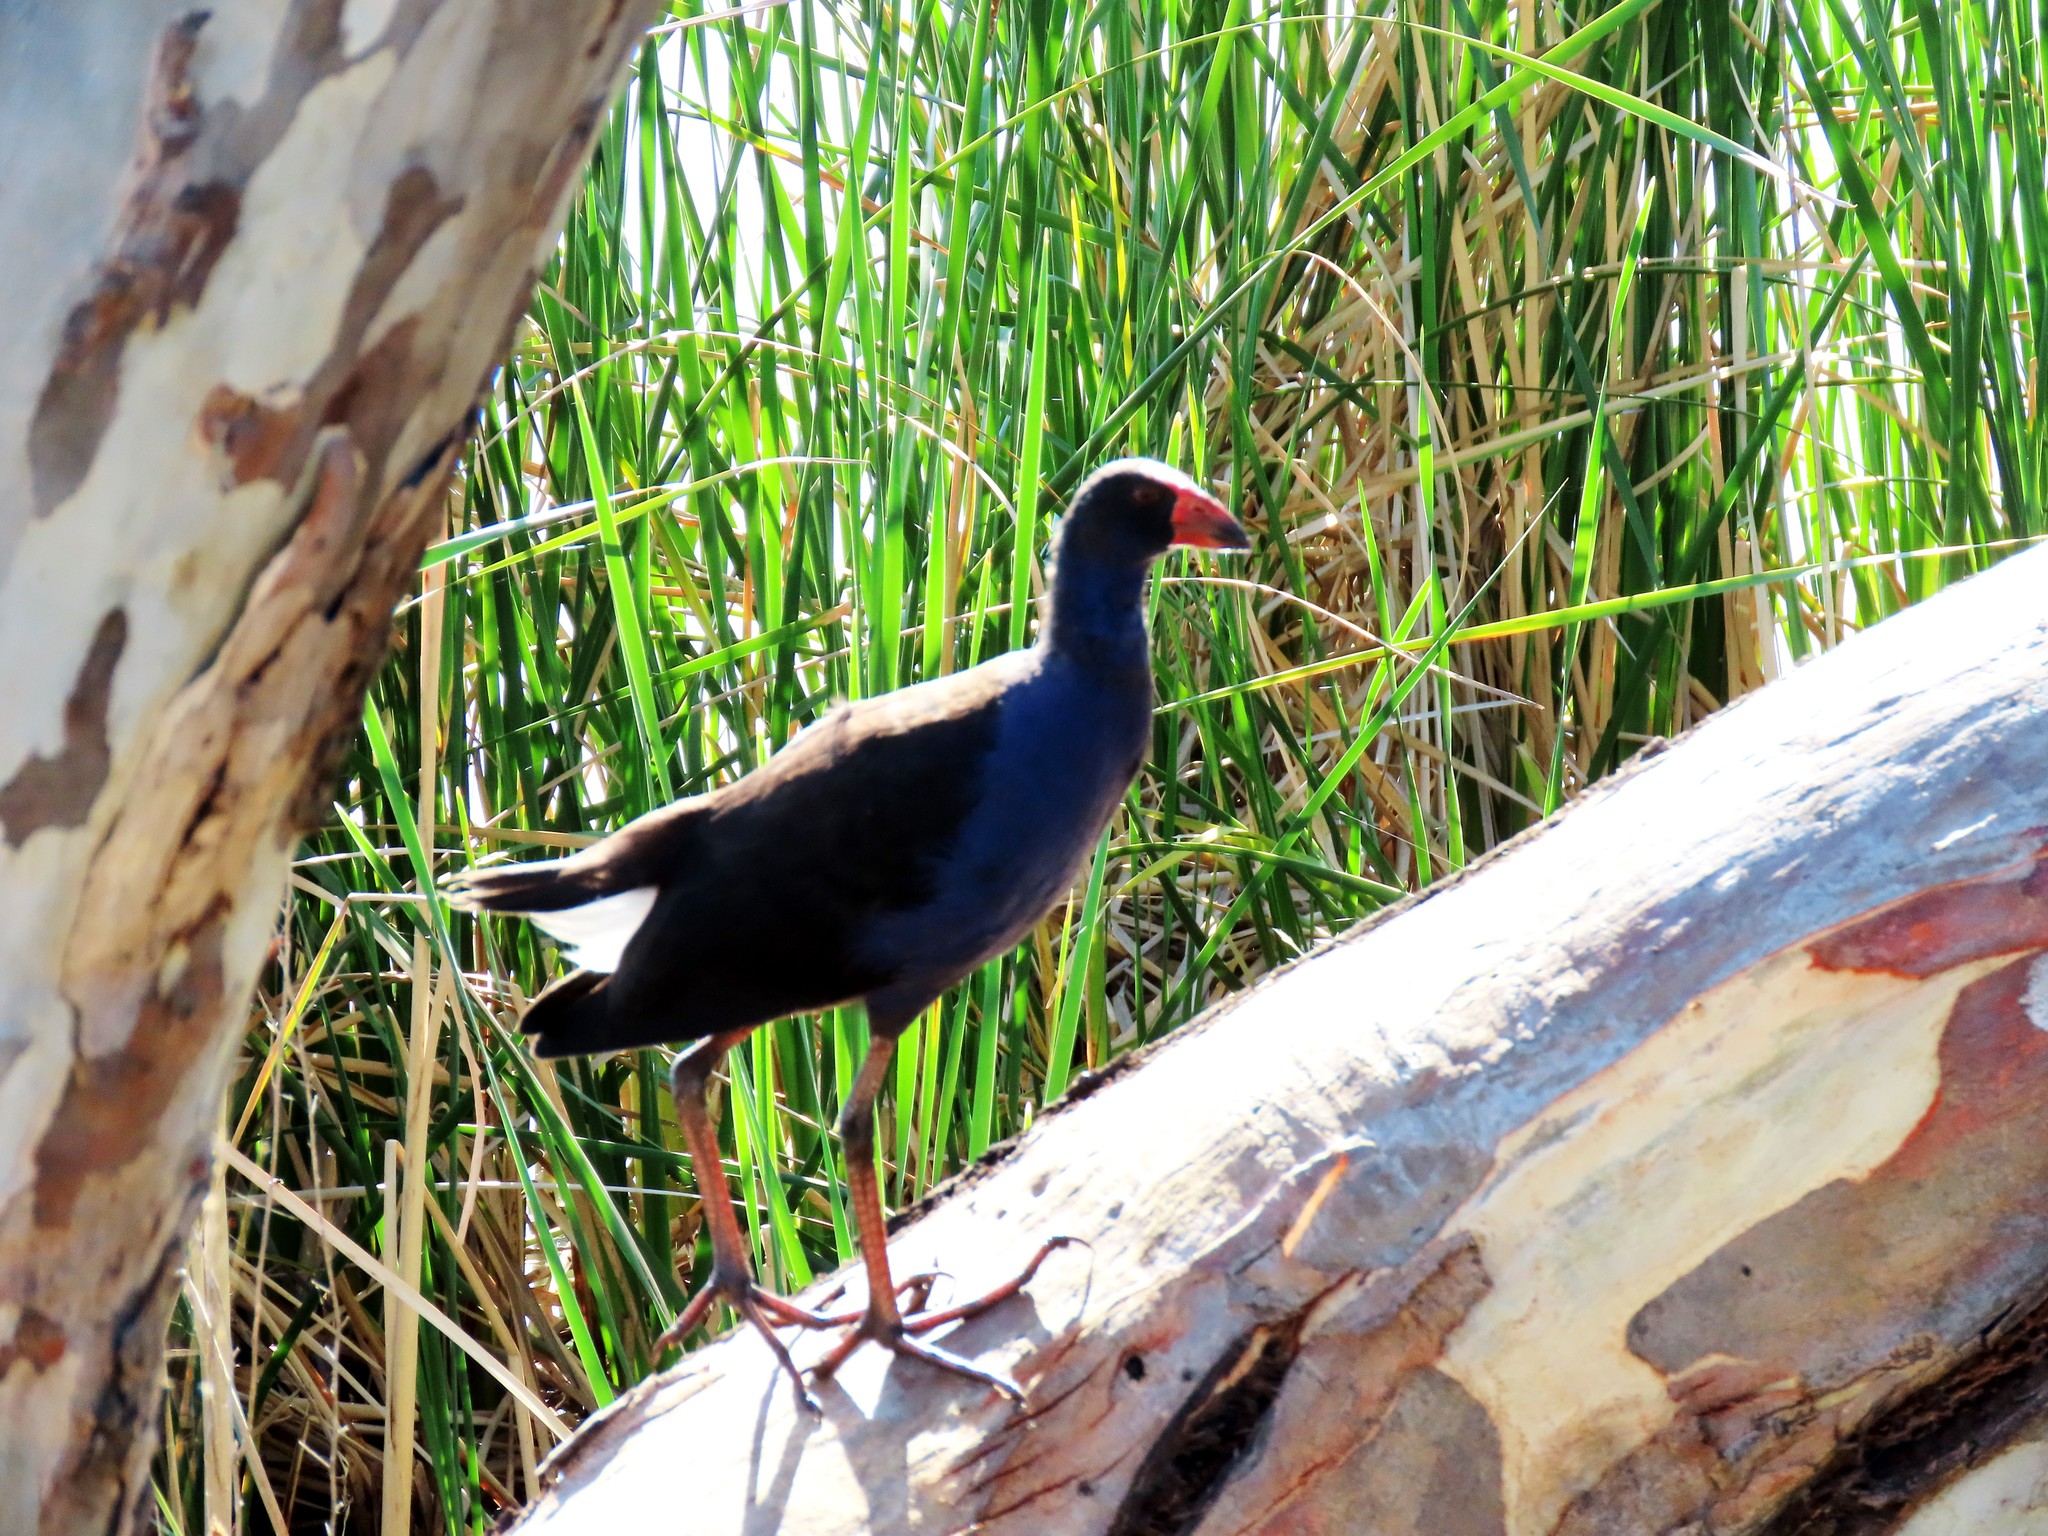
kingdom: Animalia
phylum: Chordata
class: Aves
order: Gruiformes
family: Rallidae
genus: Porphyrio
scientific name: Porphyrio melanotus
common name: Australasian swamphen
